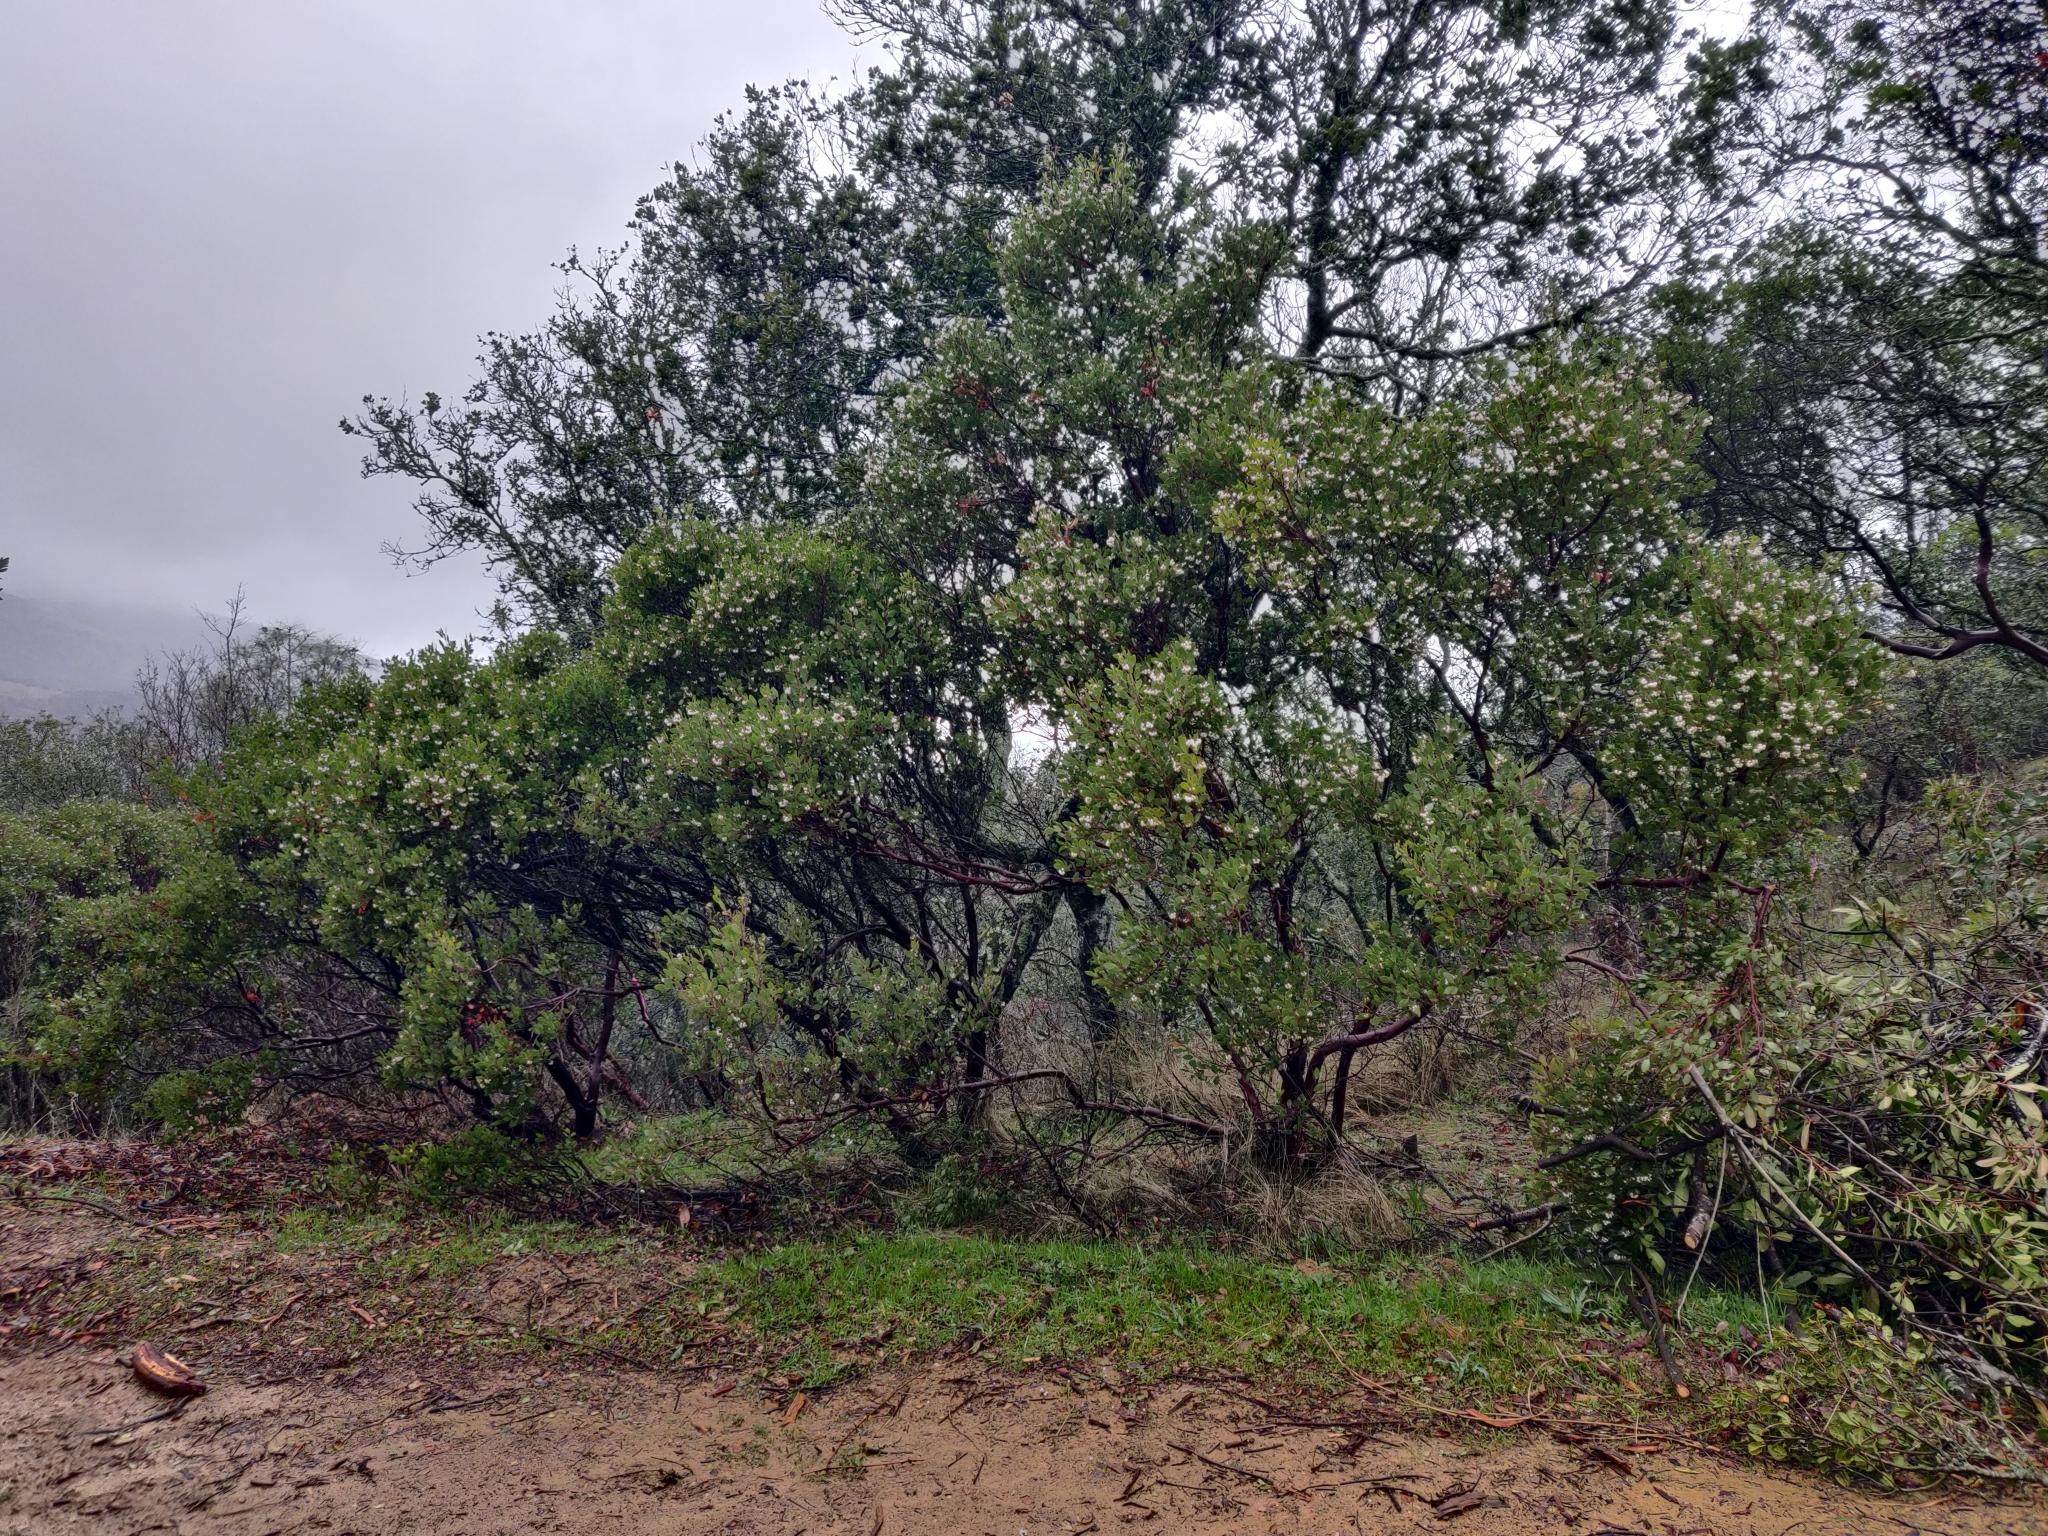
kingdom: Plantae
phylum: Tracheophyta
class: Magnoliopsida
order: Ericales
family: Ericaceae
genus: Arctostaphylos
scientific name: Arctostaphylos manzanita
